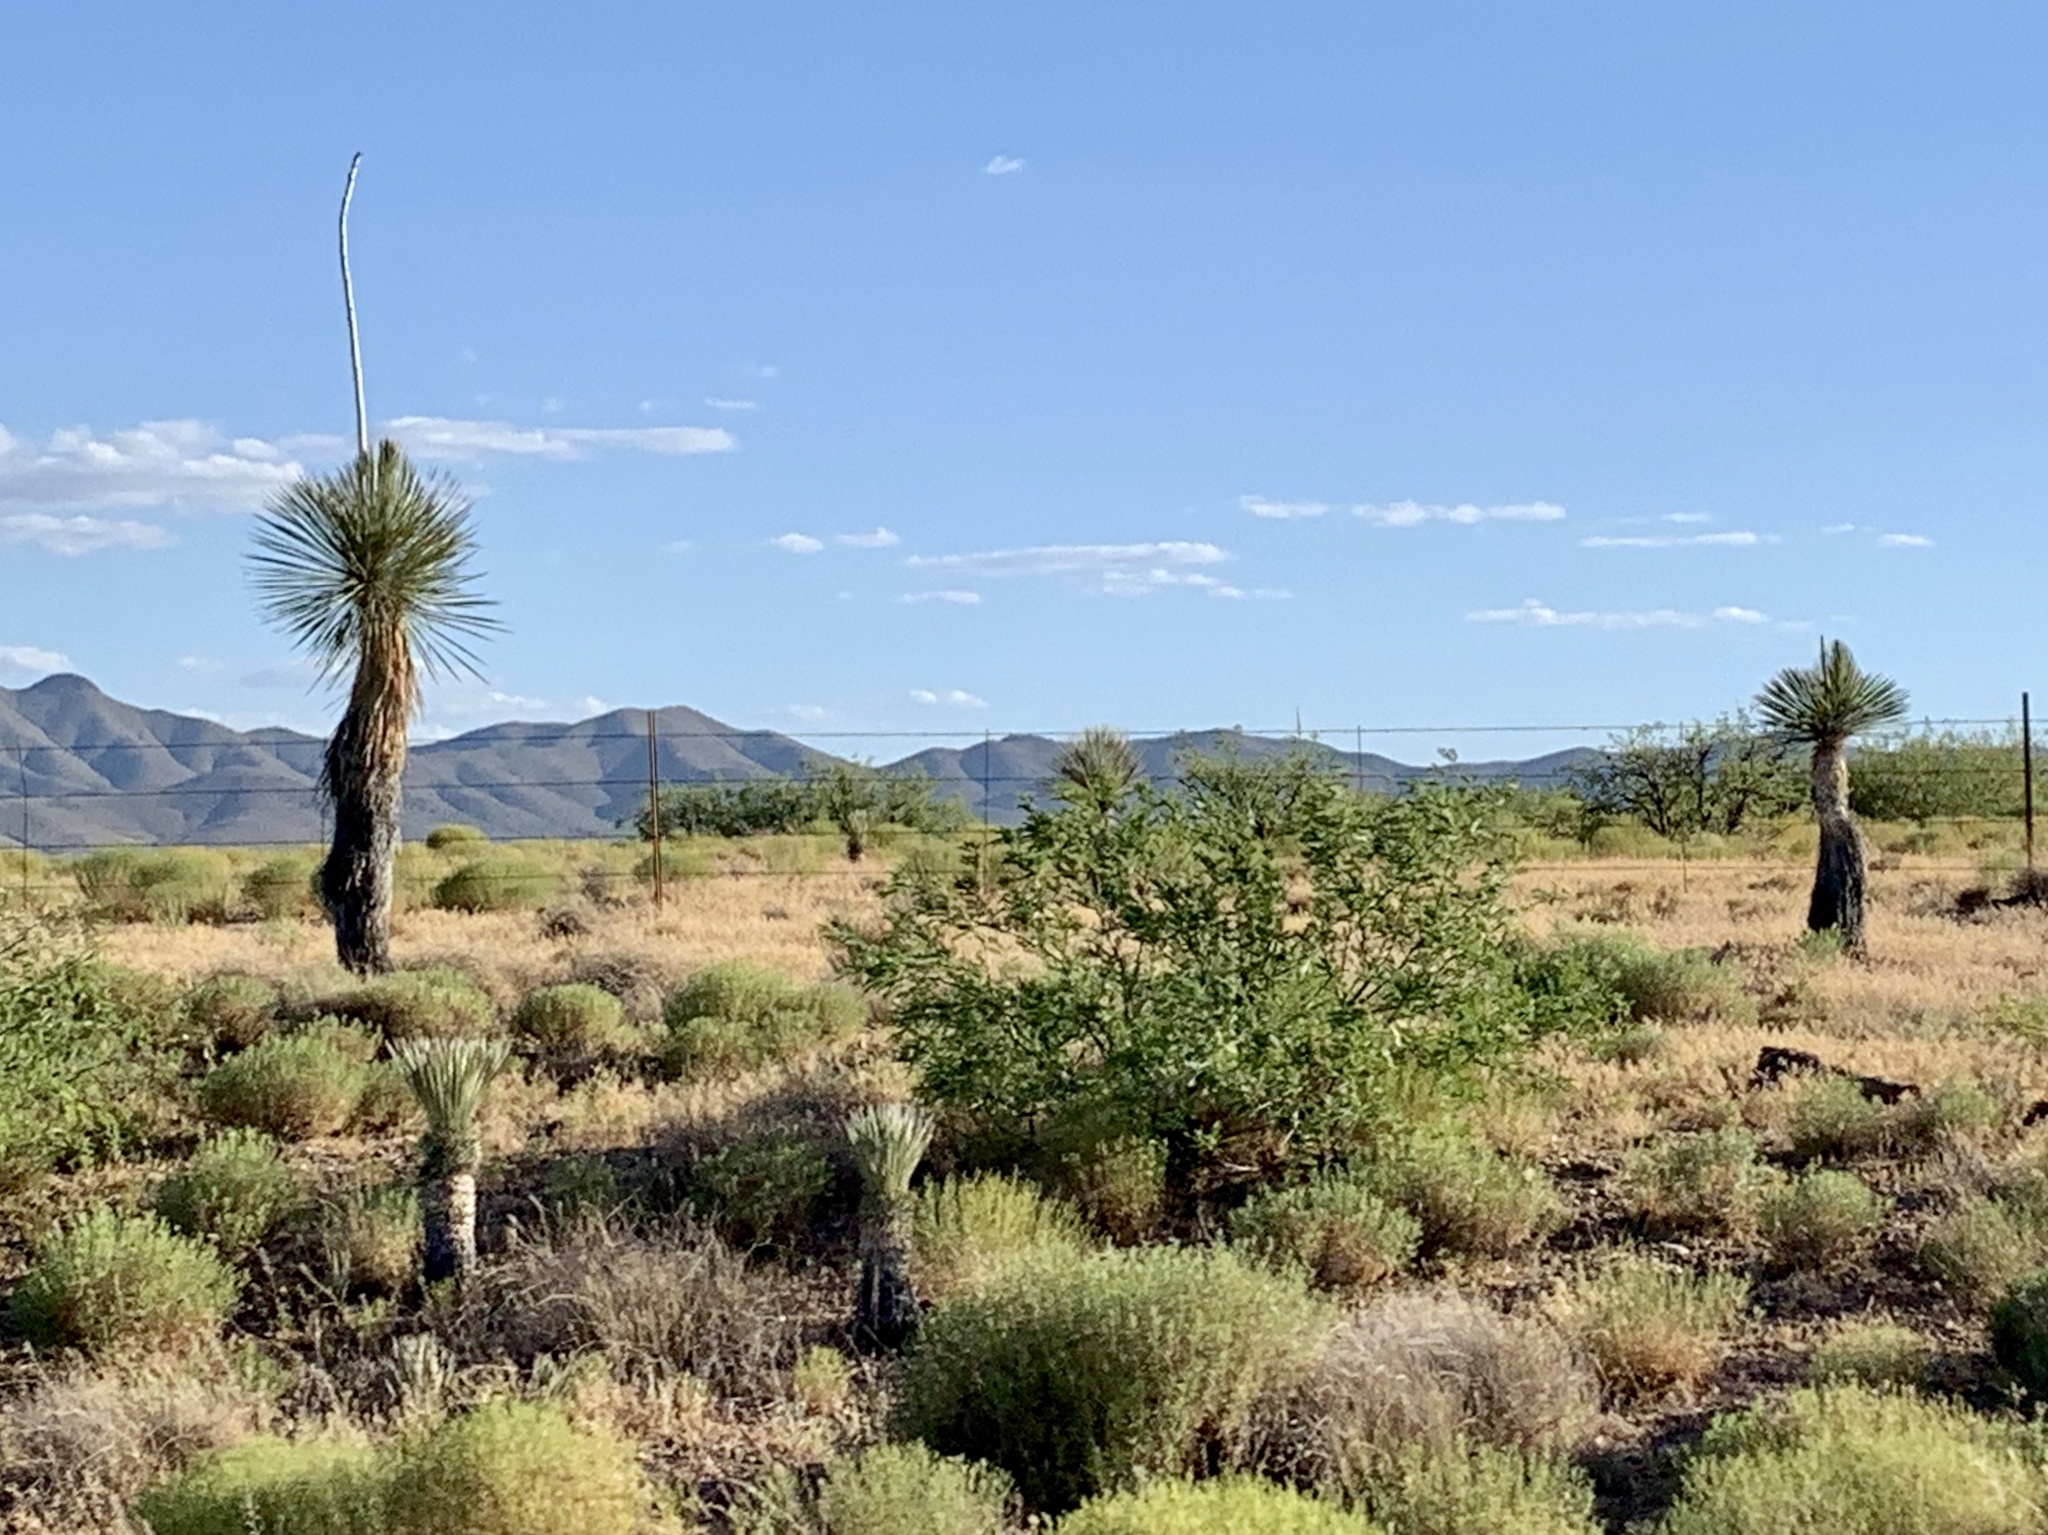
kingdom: Plantae
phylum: Tracheophyta
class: Liliopsida
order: Asparagales
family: Asparagaceae
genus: Yucca
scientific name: Yucca elata
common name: Palmella
